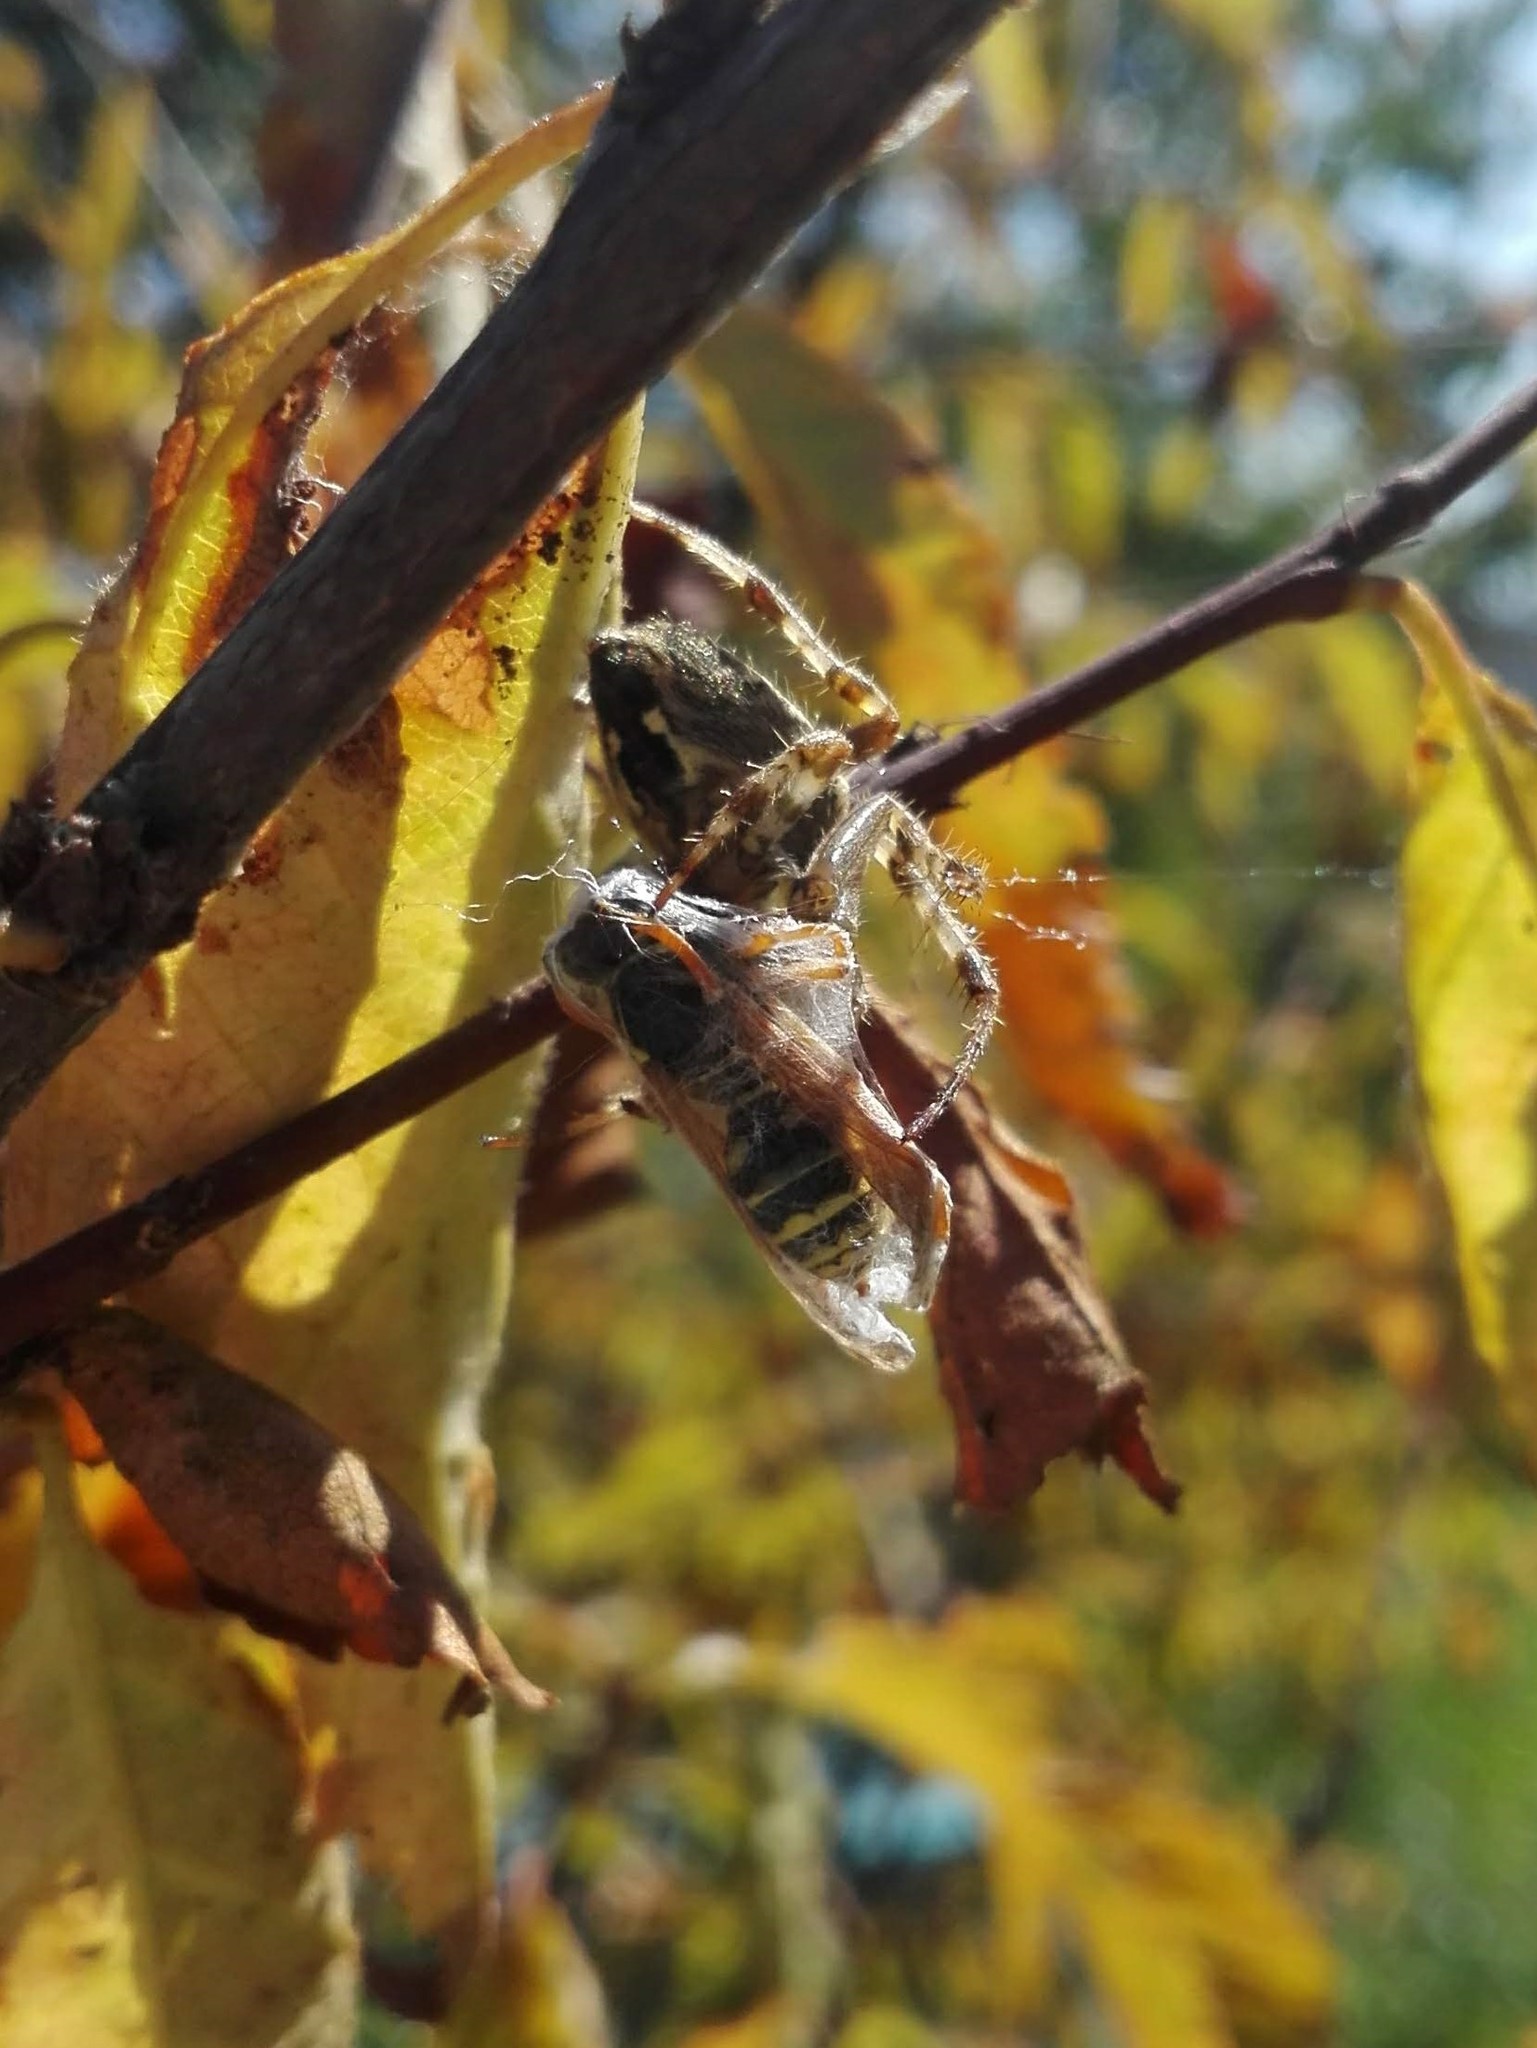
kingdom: Animalia
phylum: Arthropoda
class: Arachnida
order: Araneae
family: Araneidae
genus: Araneus
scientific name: Araneus diadematus
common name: Cross orbweaver
